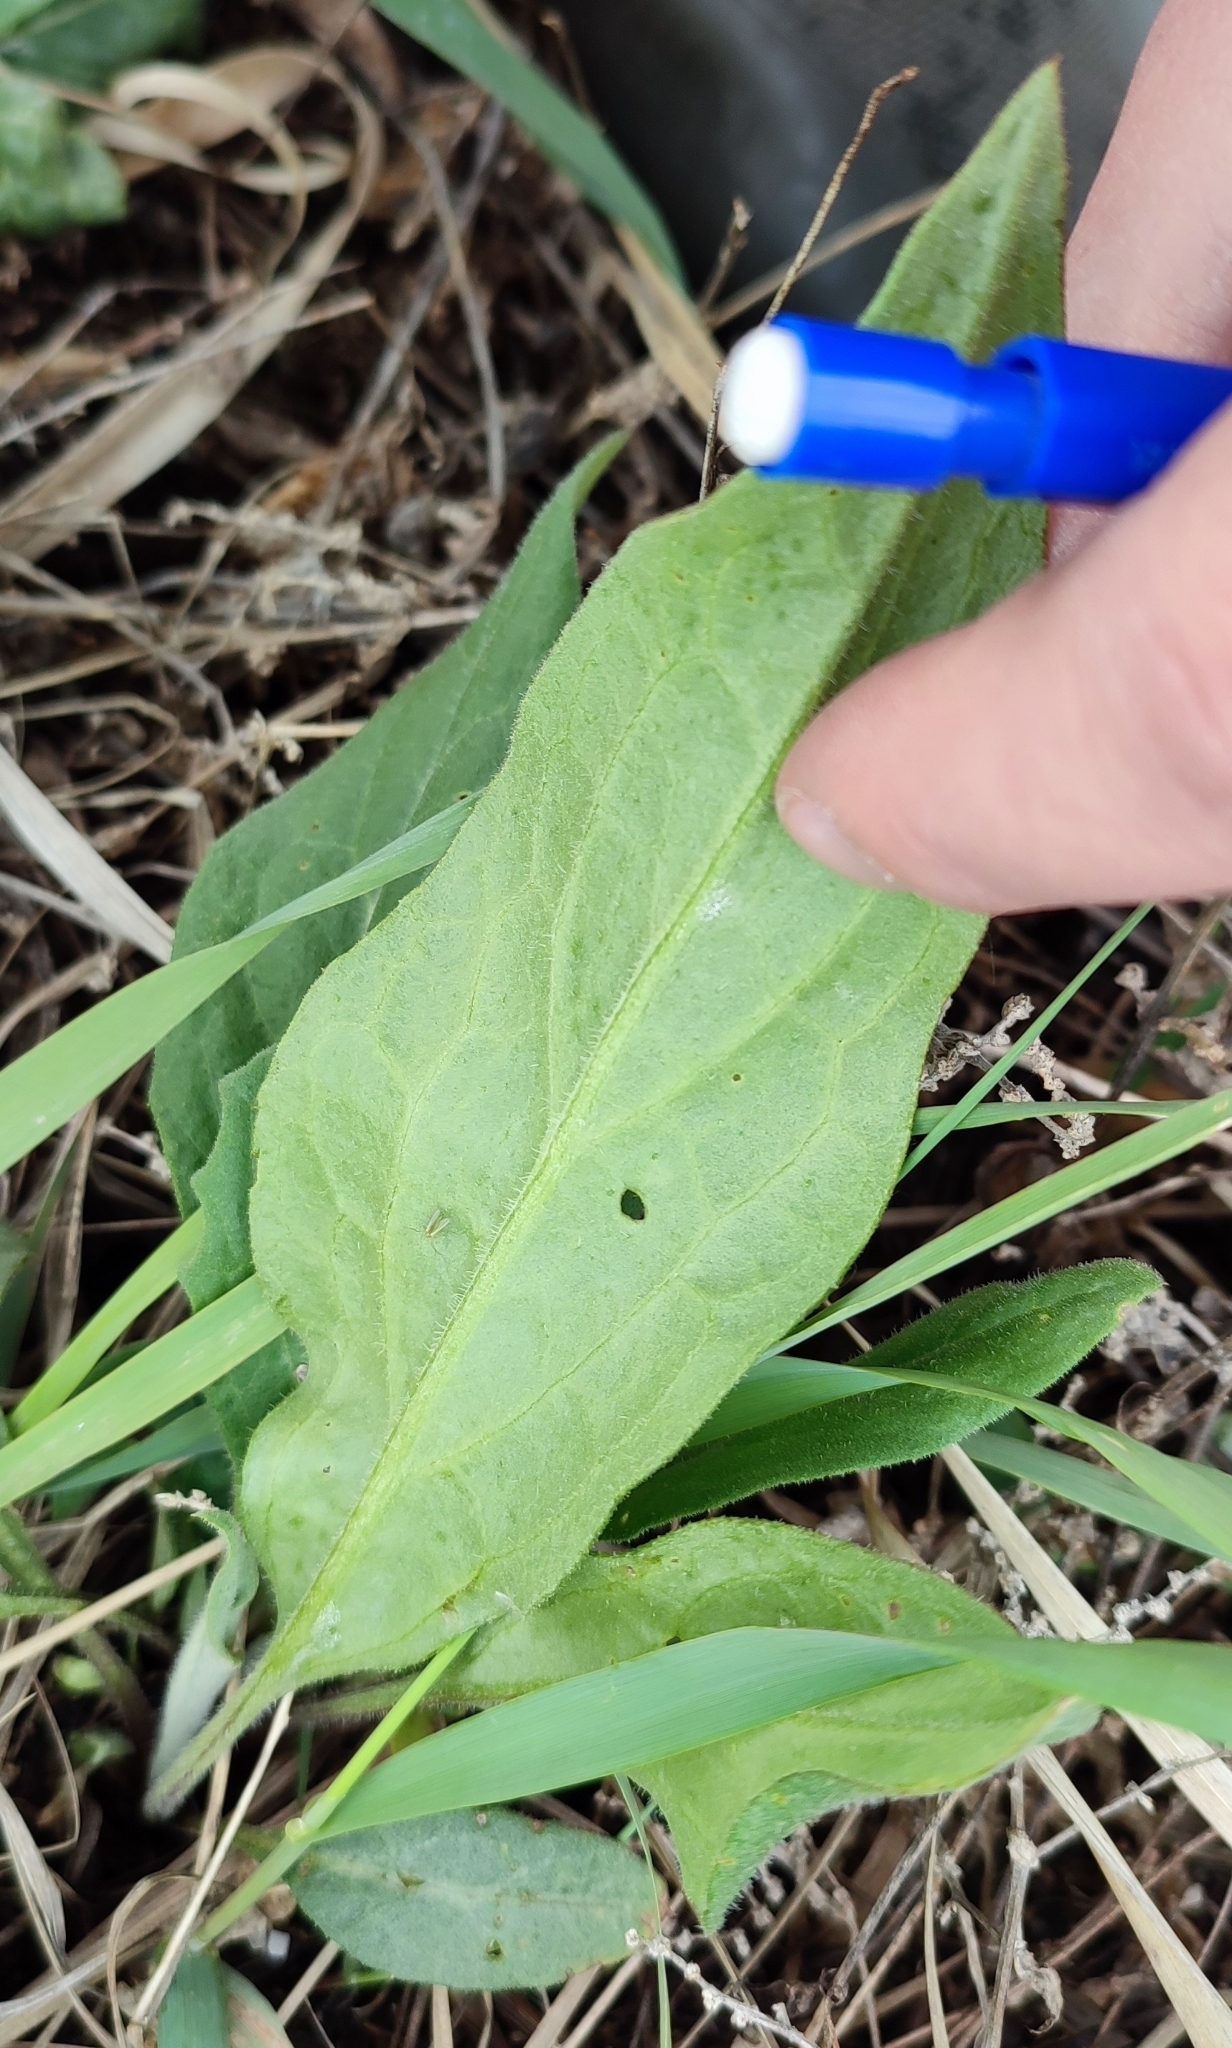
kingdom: Plantae
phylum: Tracheophyta
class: Magnoliopsida
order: Asterales
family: Asteraceae
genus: Saussurea
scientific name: Saussurea amara
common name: Alberta sawwort
